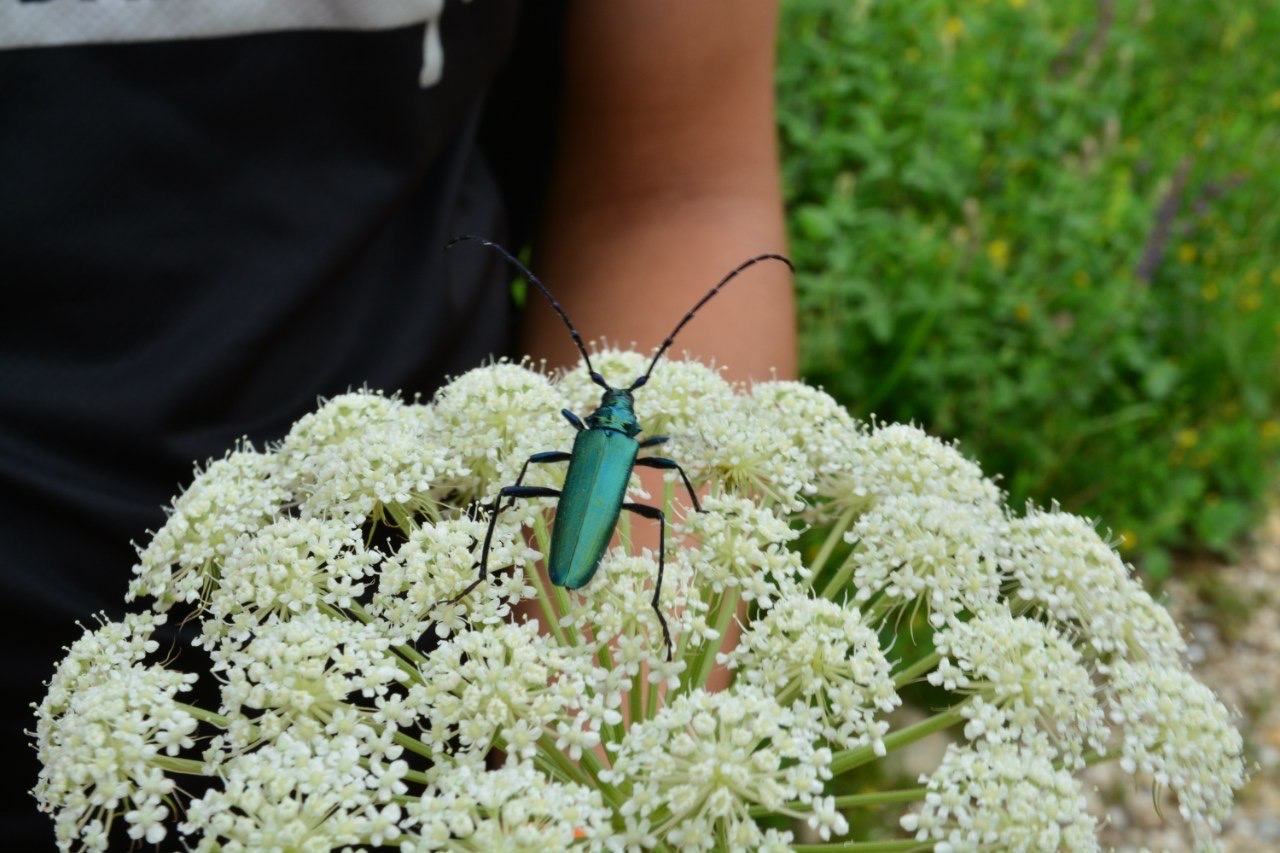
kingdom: Animalia
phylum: Arthropoda
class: Insecta
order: Coleoptera
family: Cerambycidae
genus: Aromia
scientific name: Aromia moschata
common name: Musk beetle
